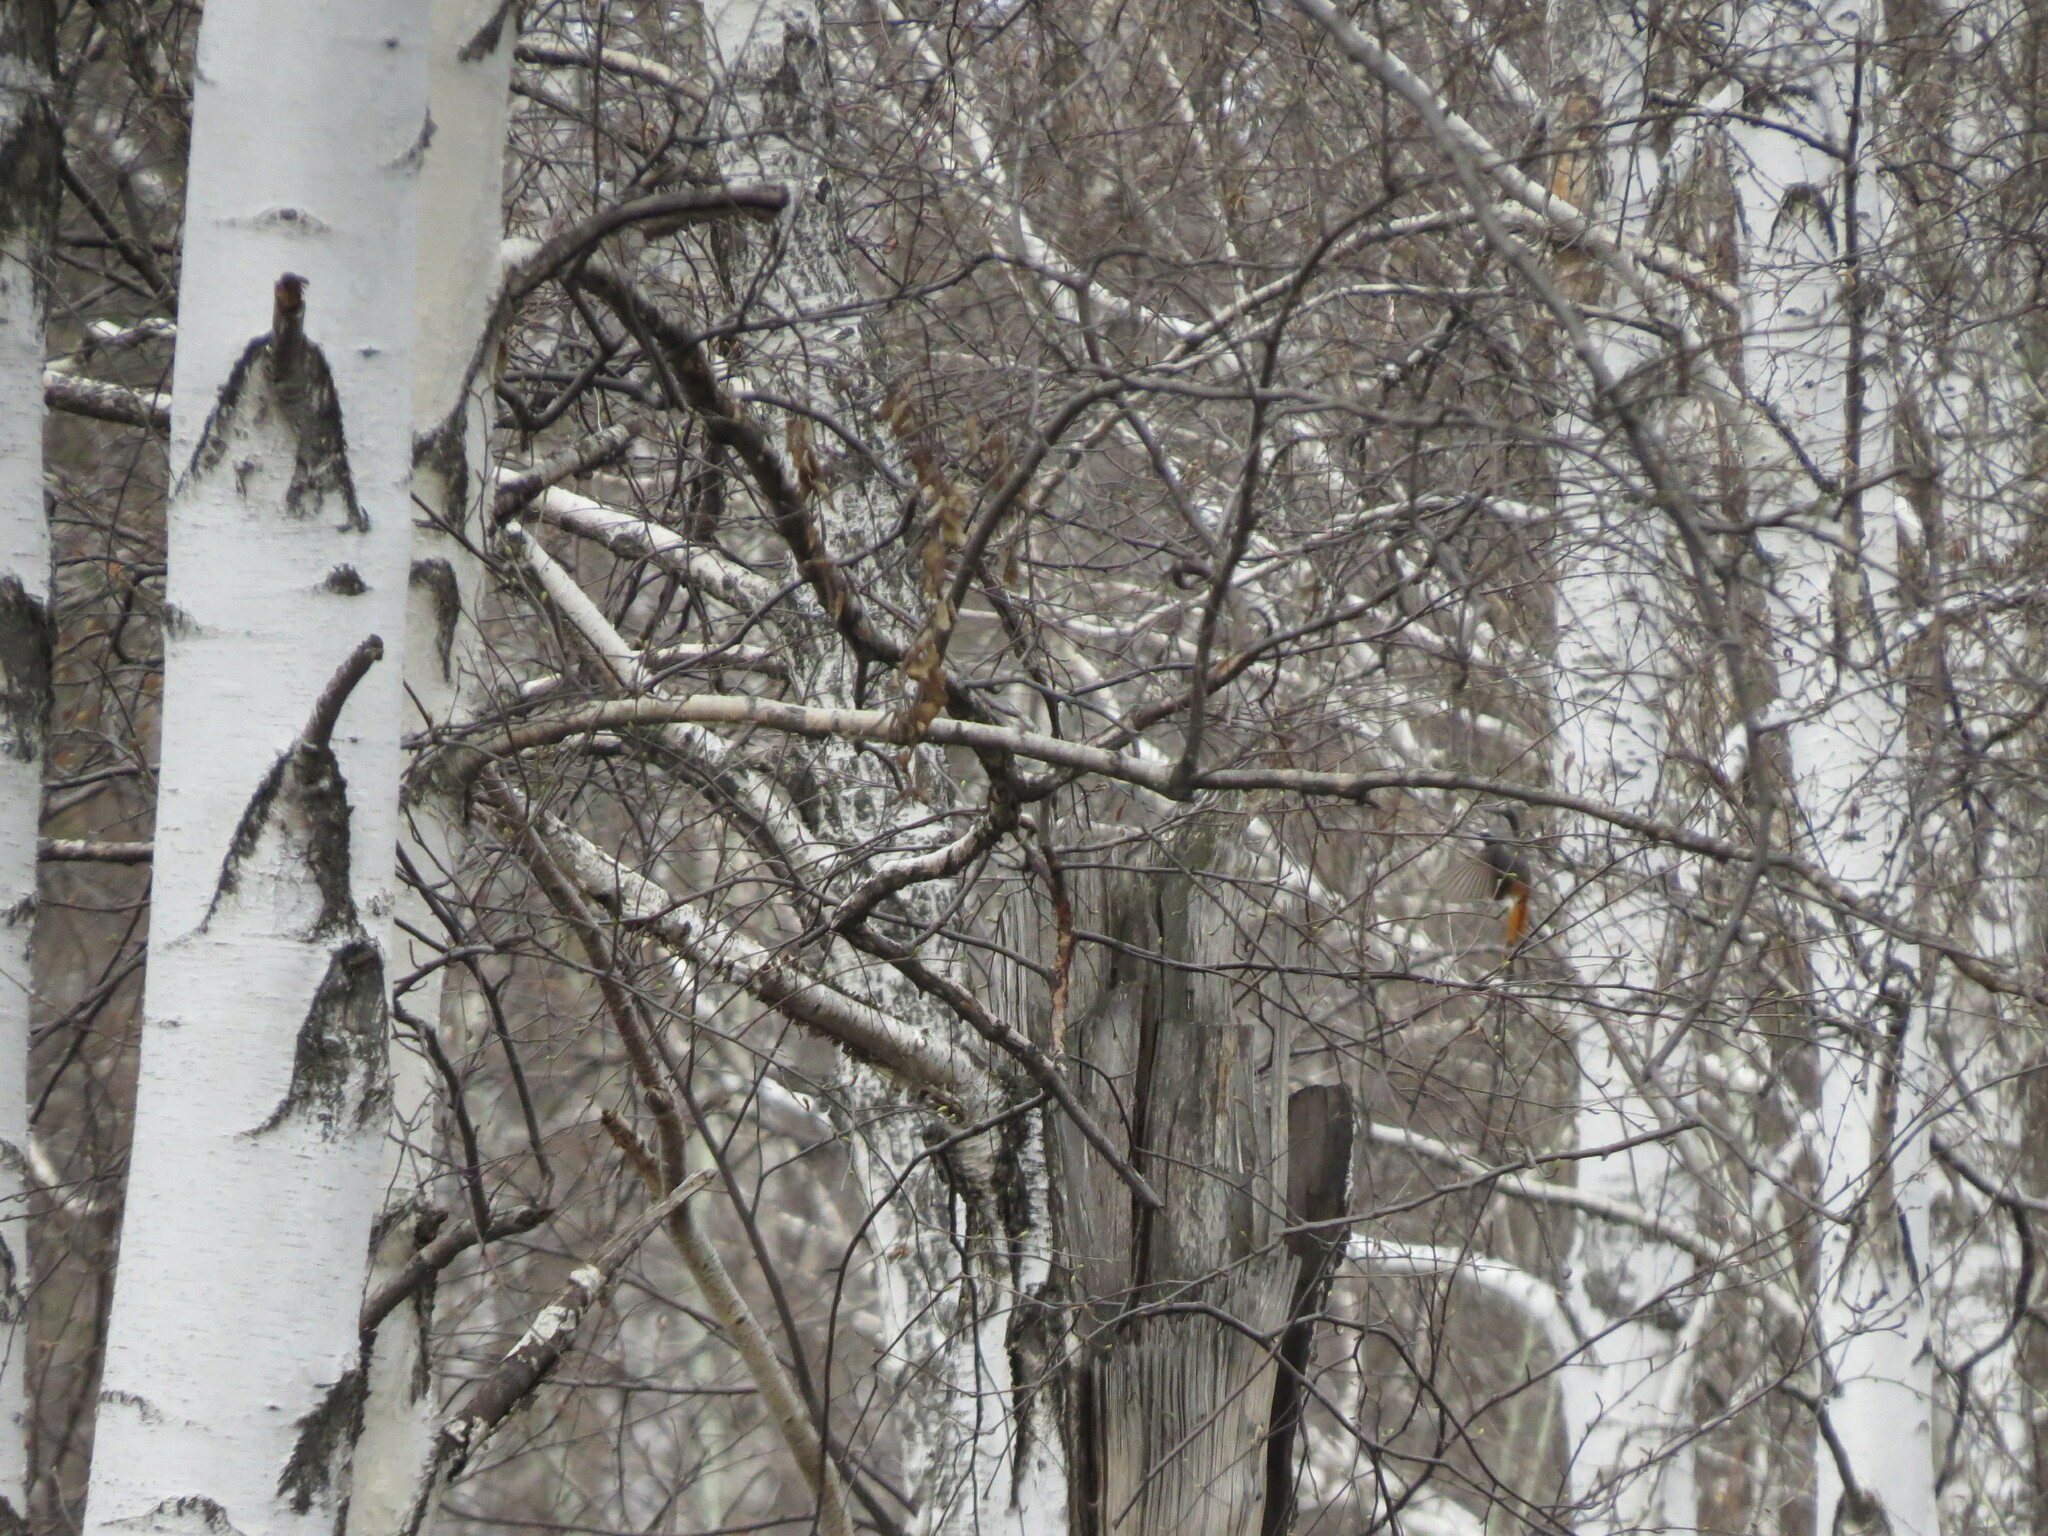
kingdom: Animalia
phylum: Chordata
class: Aves
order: Passeriformes
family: Muscicapidae
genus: Phoenicurus
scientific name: Phoenicurus phoenicurus
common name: Common redstart
